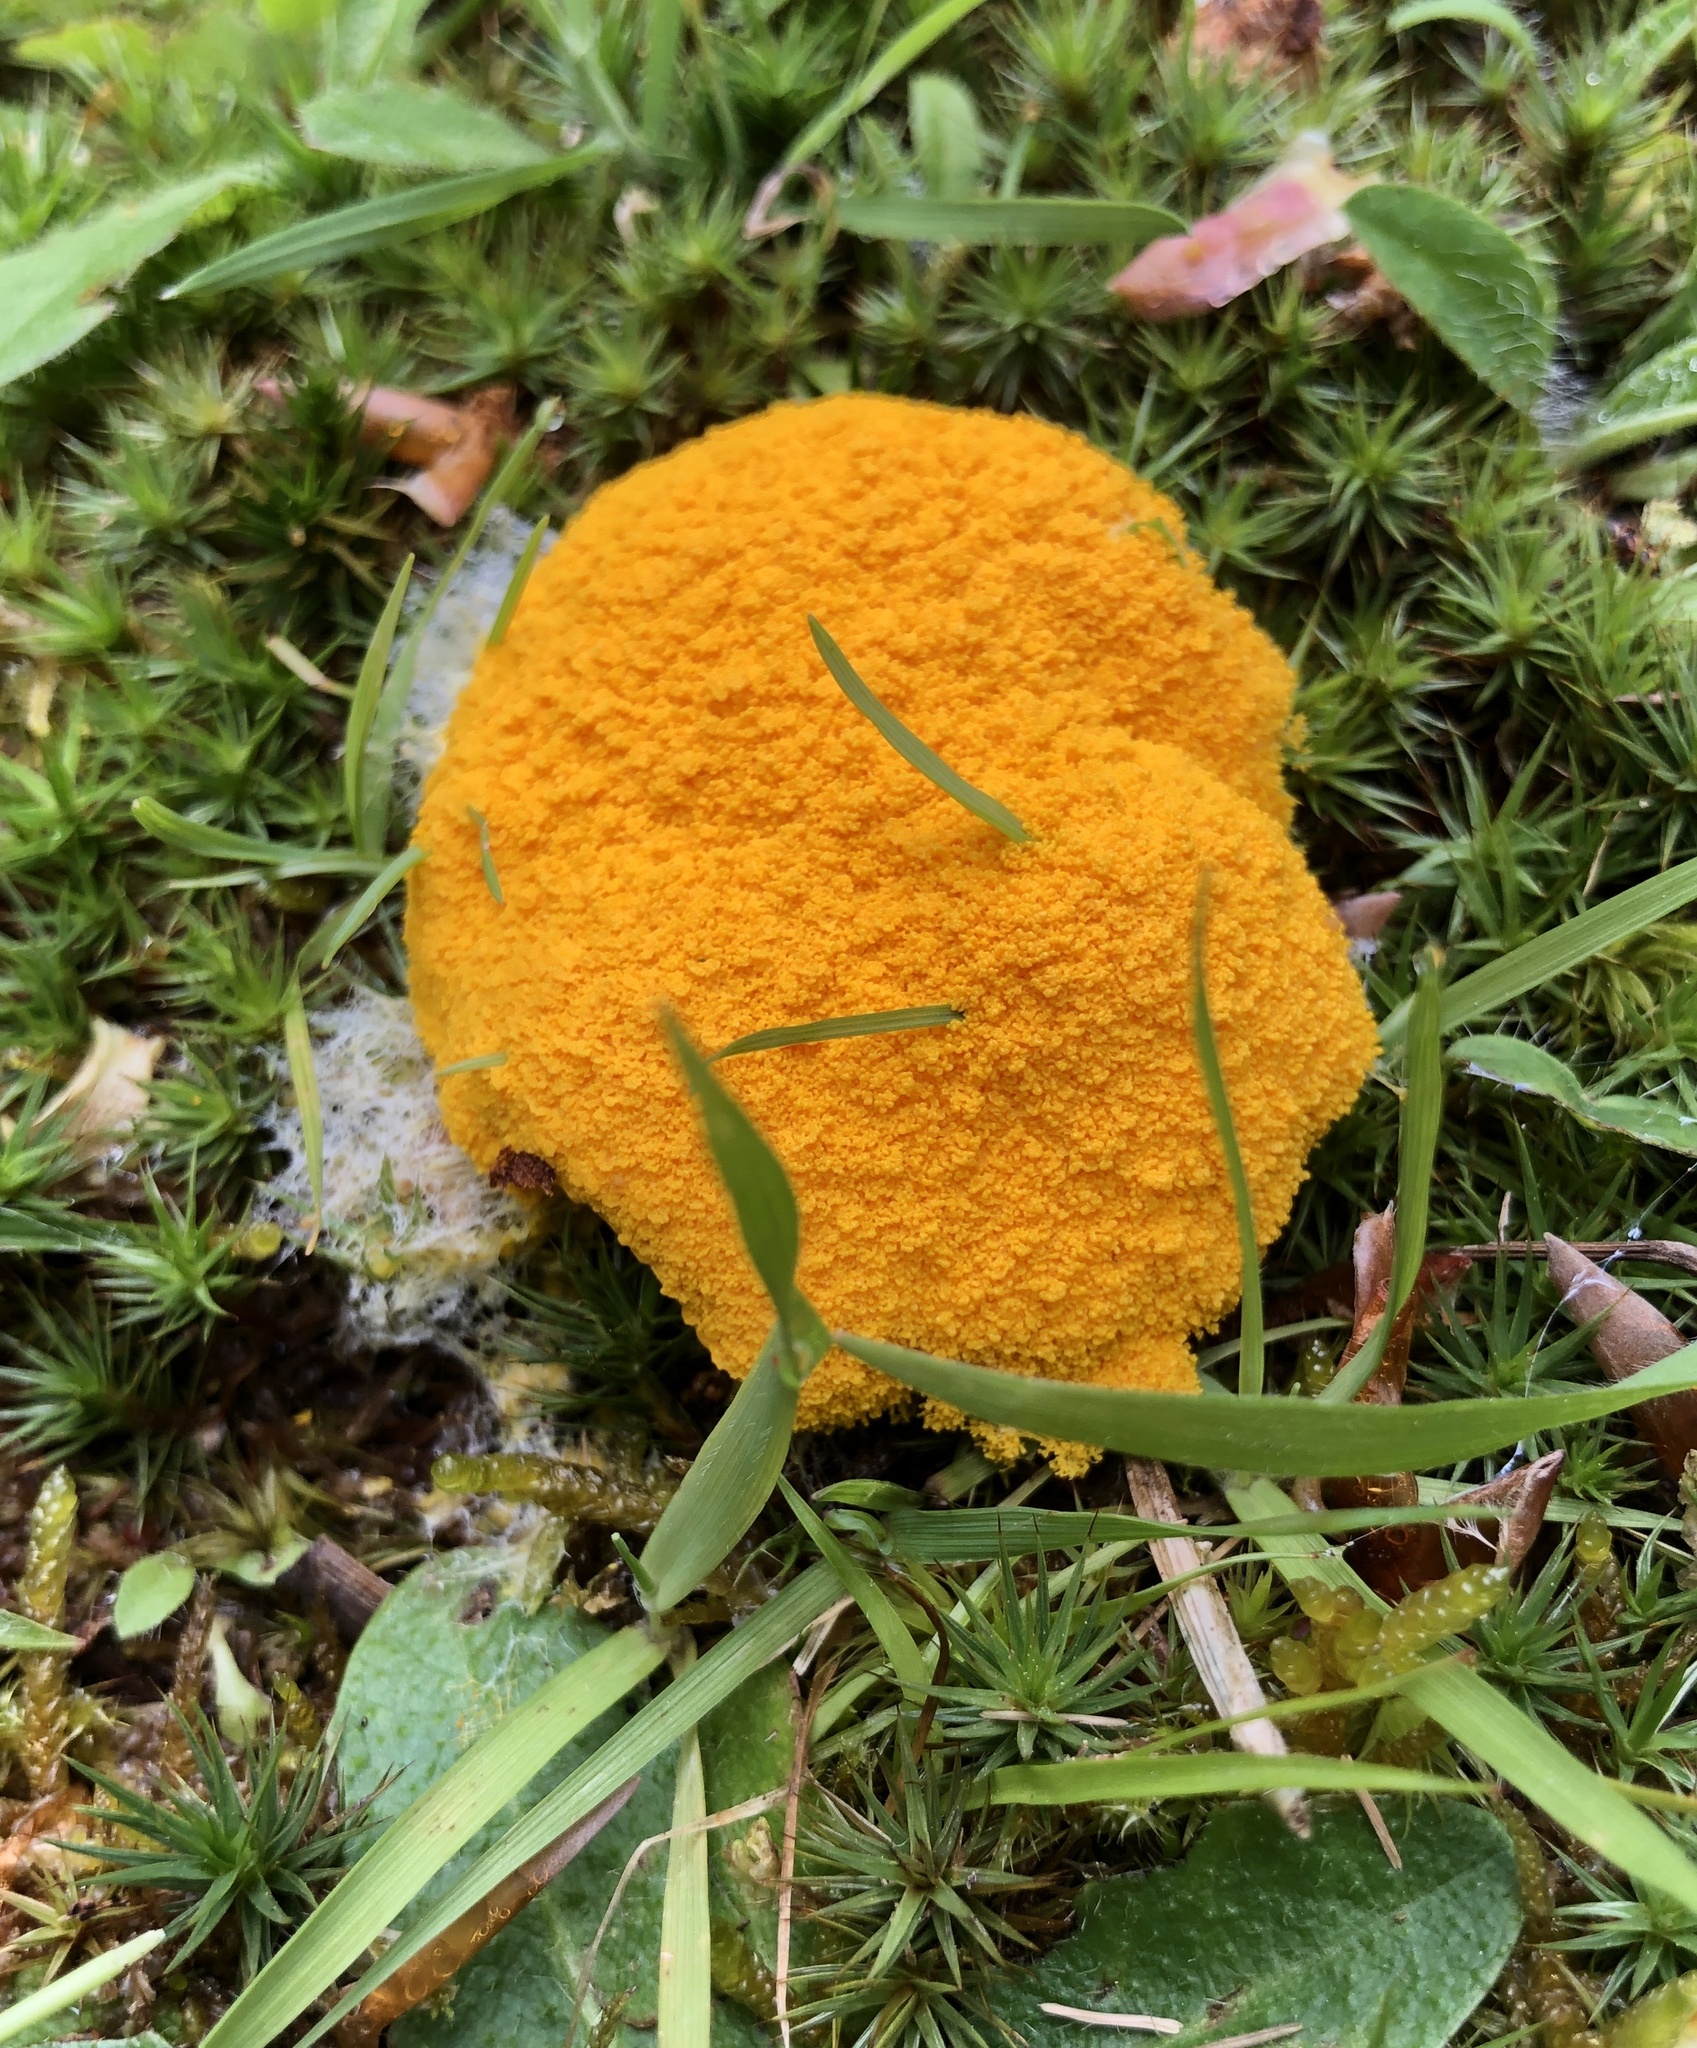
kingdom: Protozoa
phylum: Mycetozoa
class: Myxomycetes
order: Physarales
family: Physaraceae
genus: Fuligo
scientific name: Fuligo septica
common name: Dog vomit slime mold
